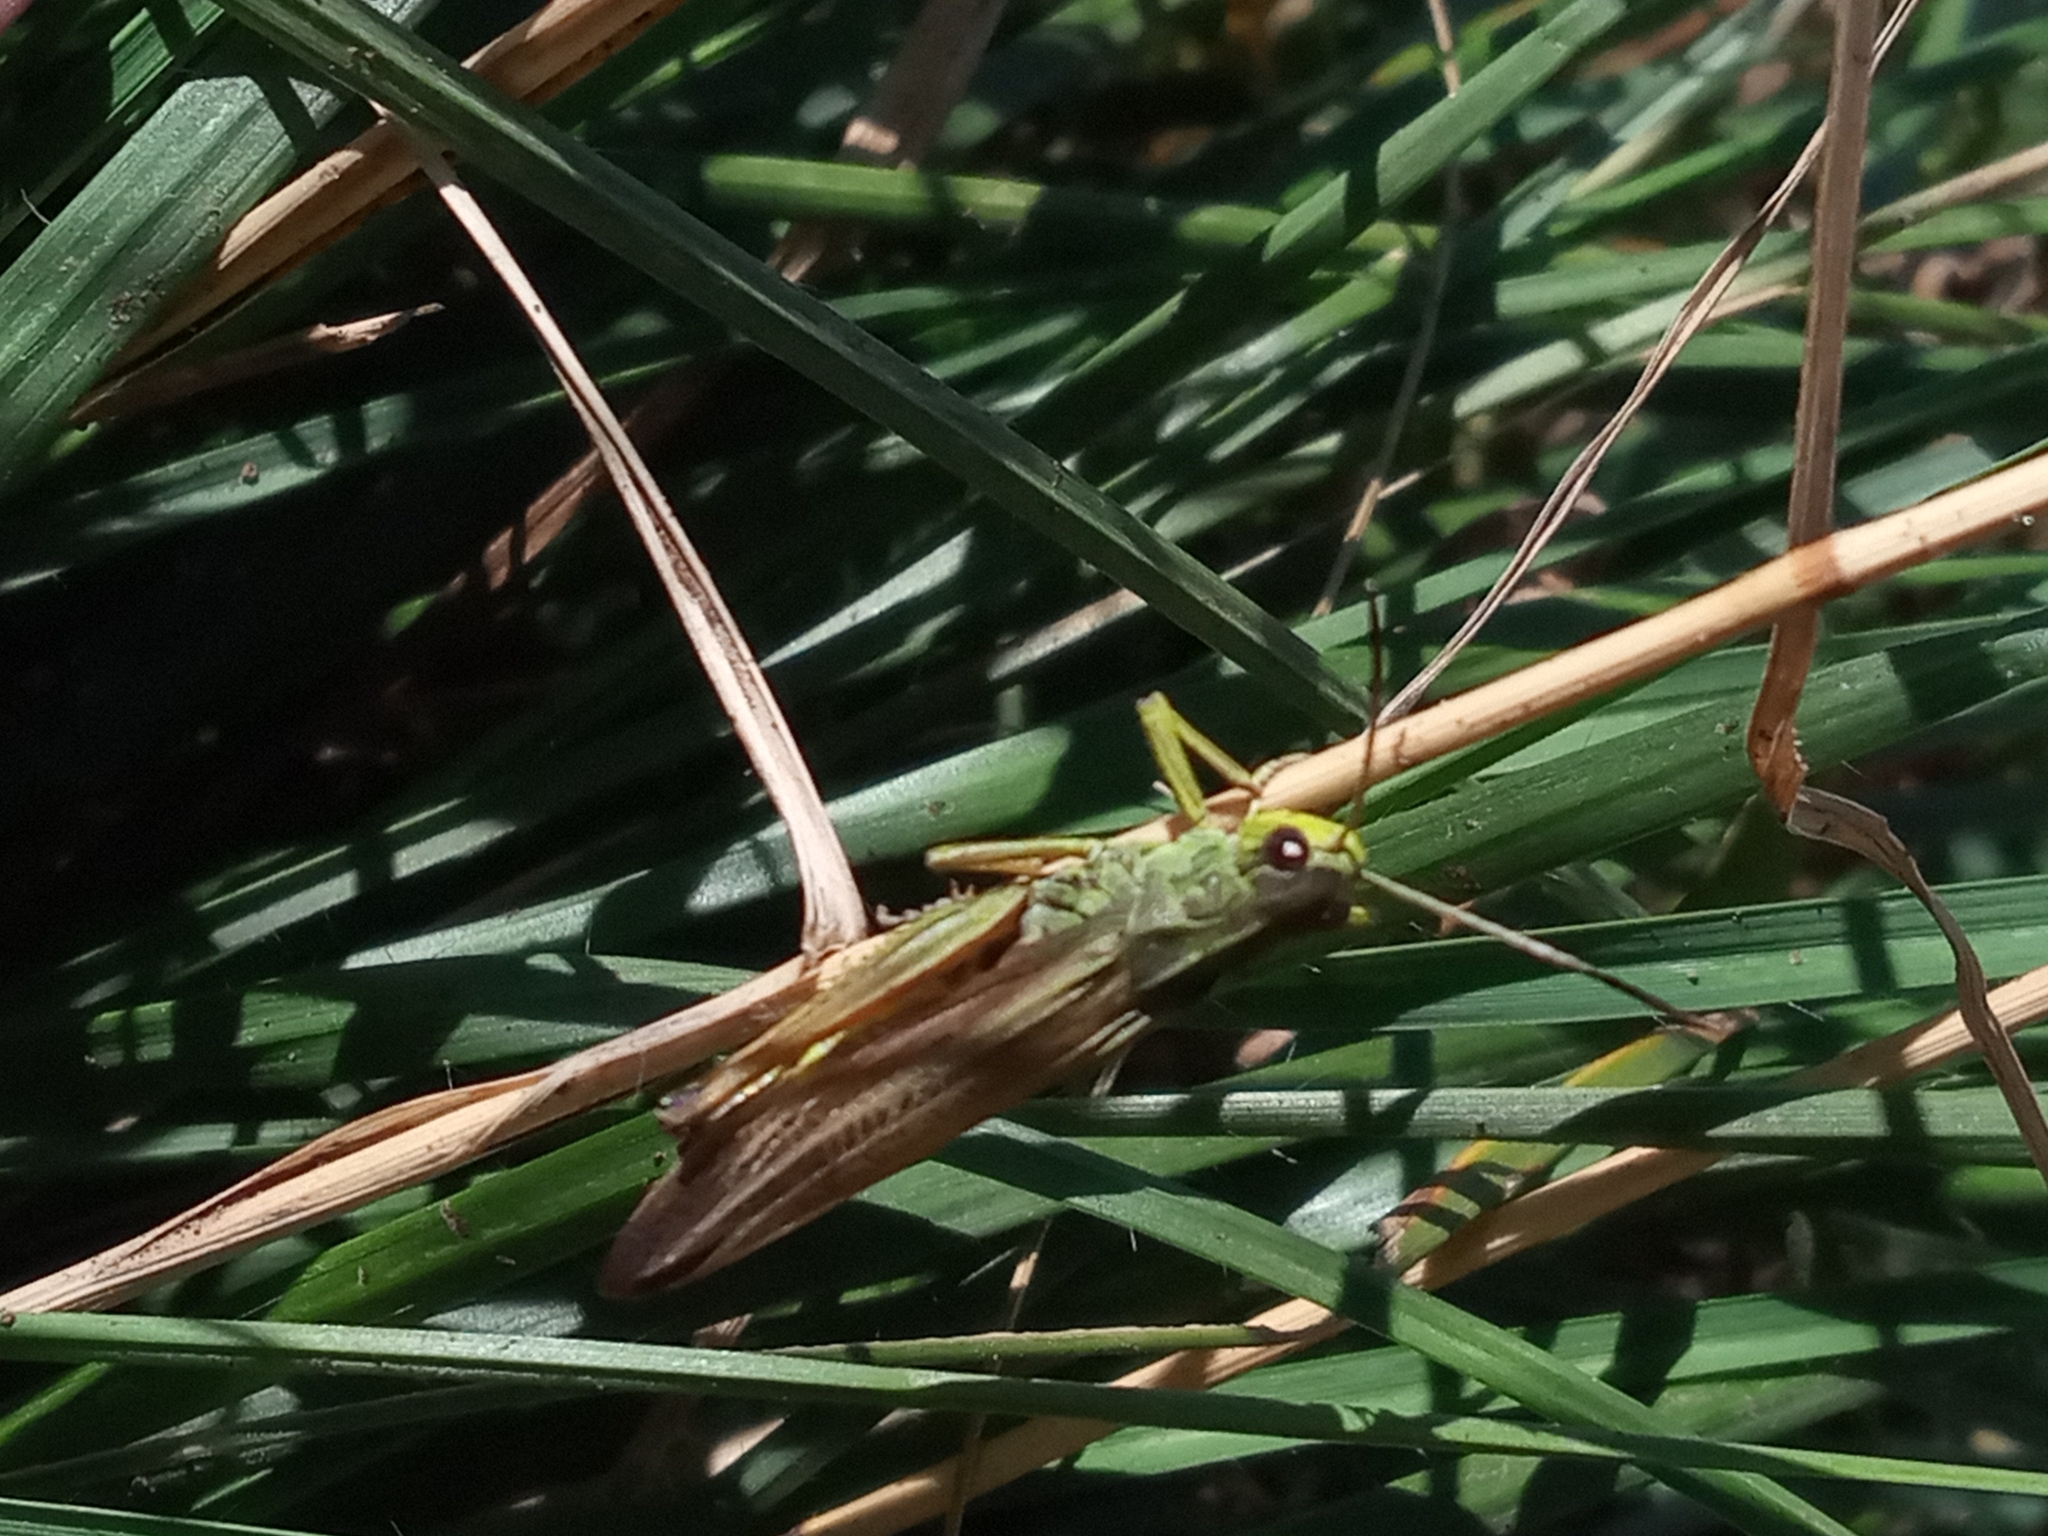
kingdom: Animalia
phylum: Arthropoda
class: Insecta
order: Orthoptera
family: Acrididae
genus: Stauroderus
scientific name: Stauroderus scalaris
